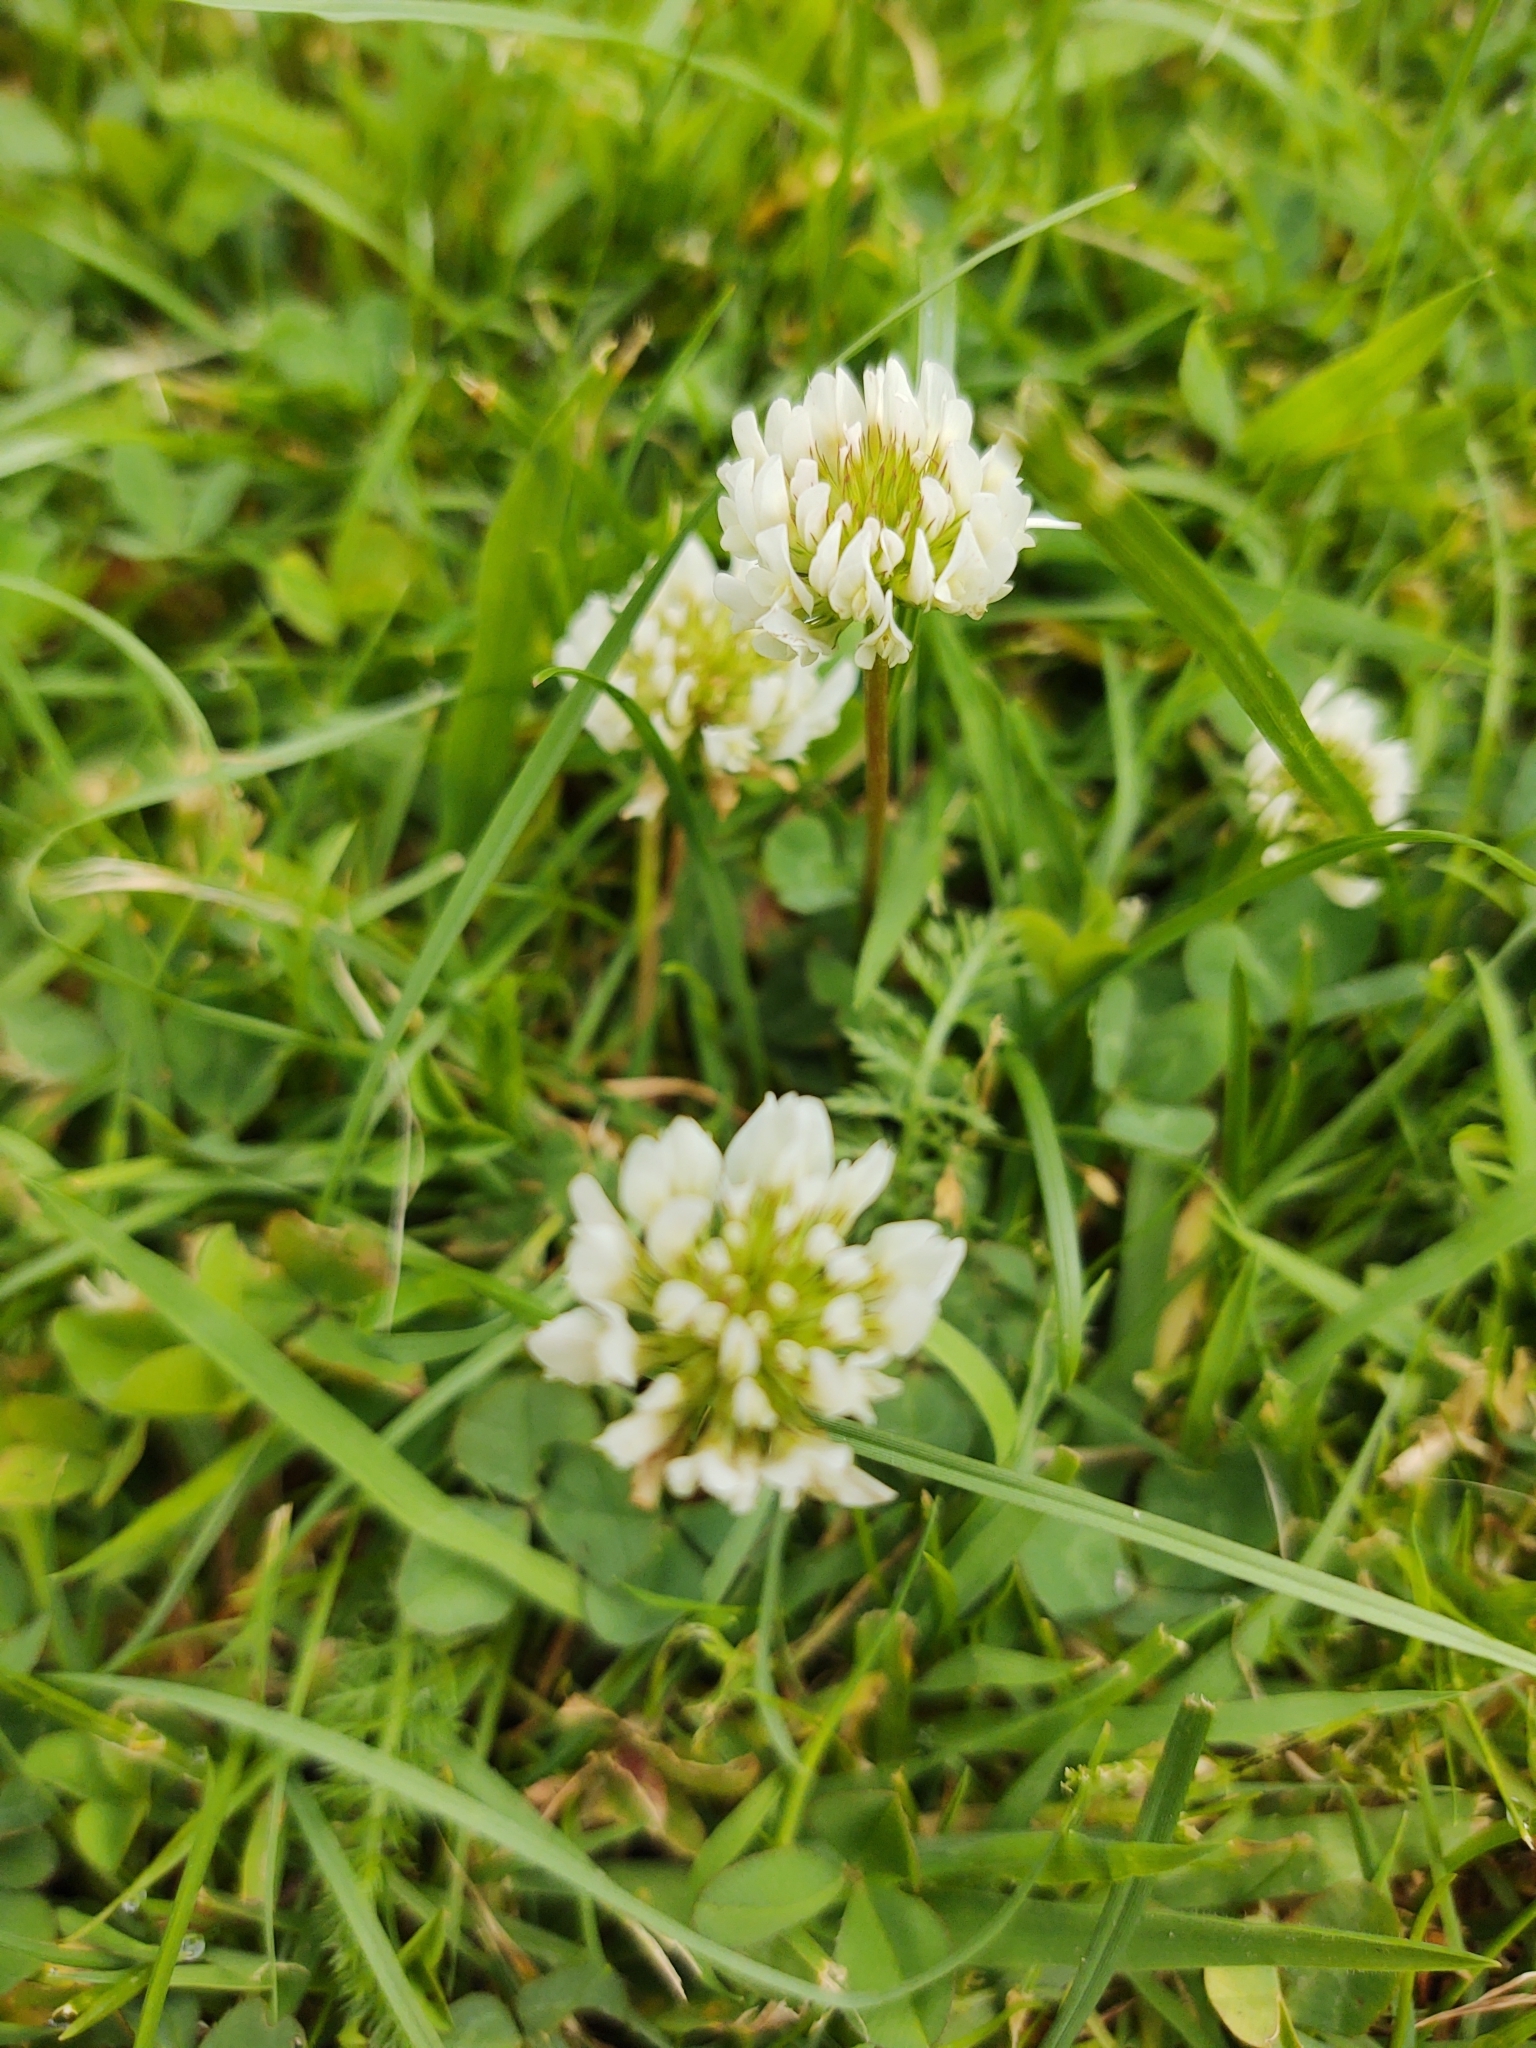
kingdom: Plantae
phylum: Tracheophyta
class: Magnoliopsida
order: Fabales
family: Fabaceae
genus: Trifolium
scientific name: Trifolium repens
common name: White clover
